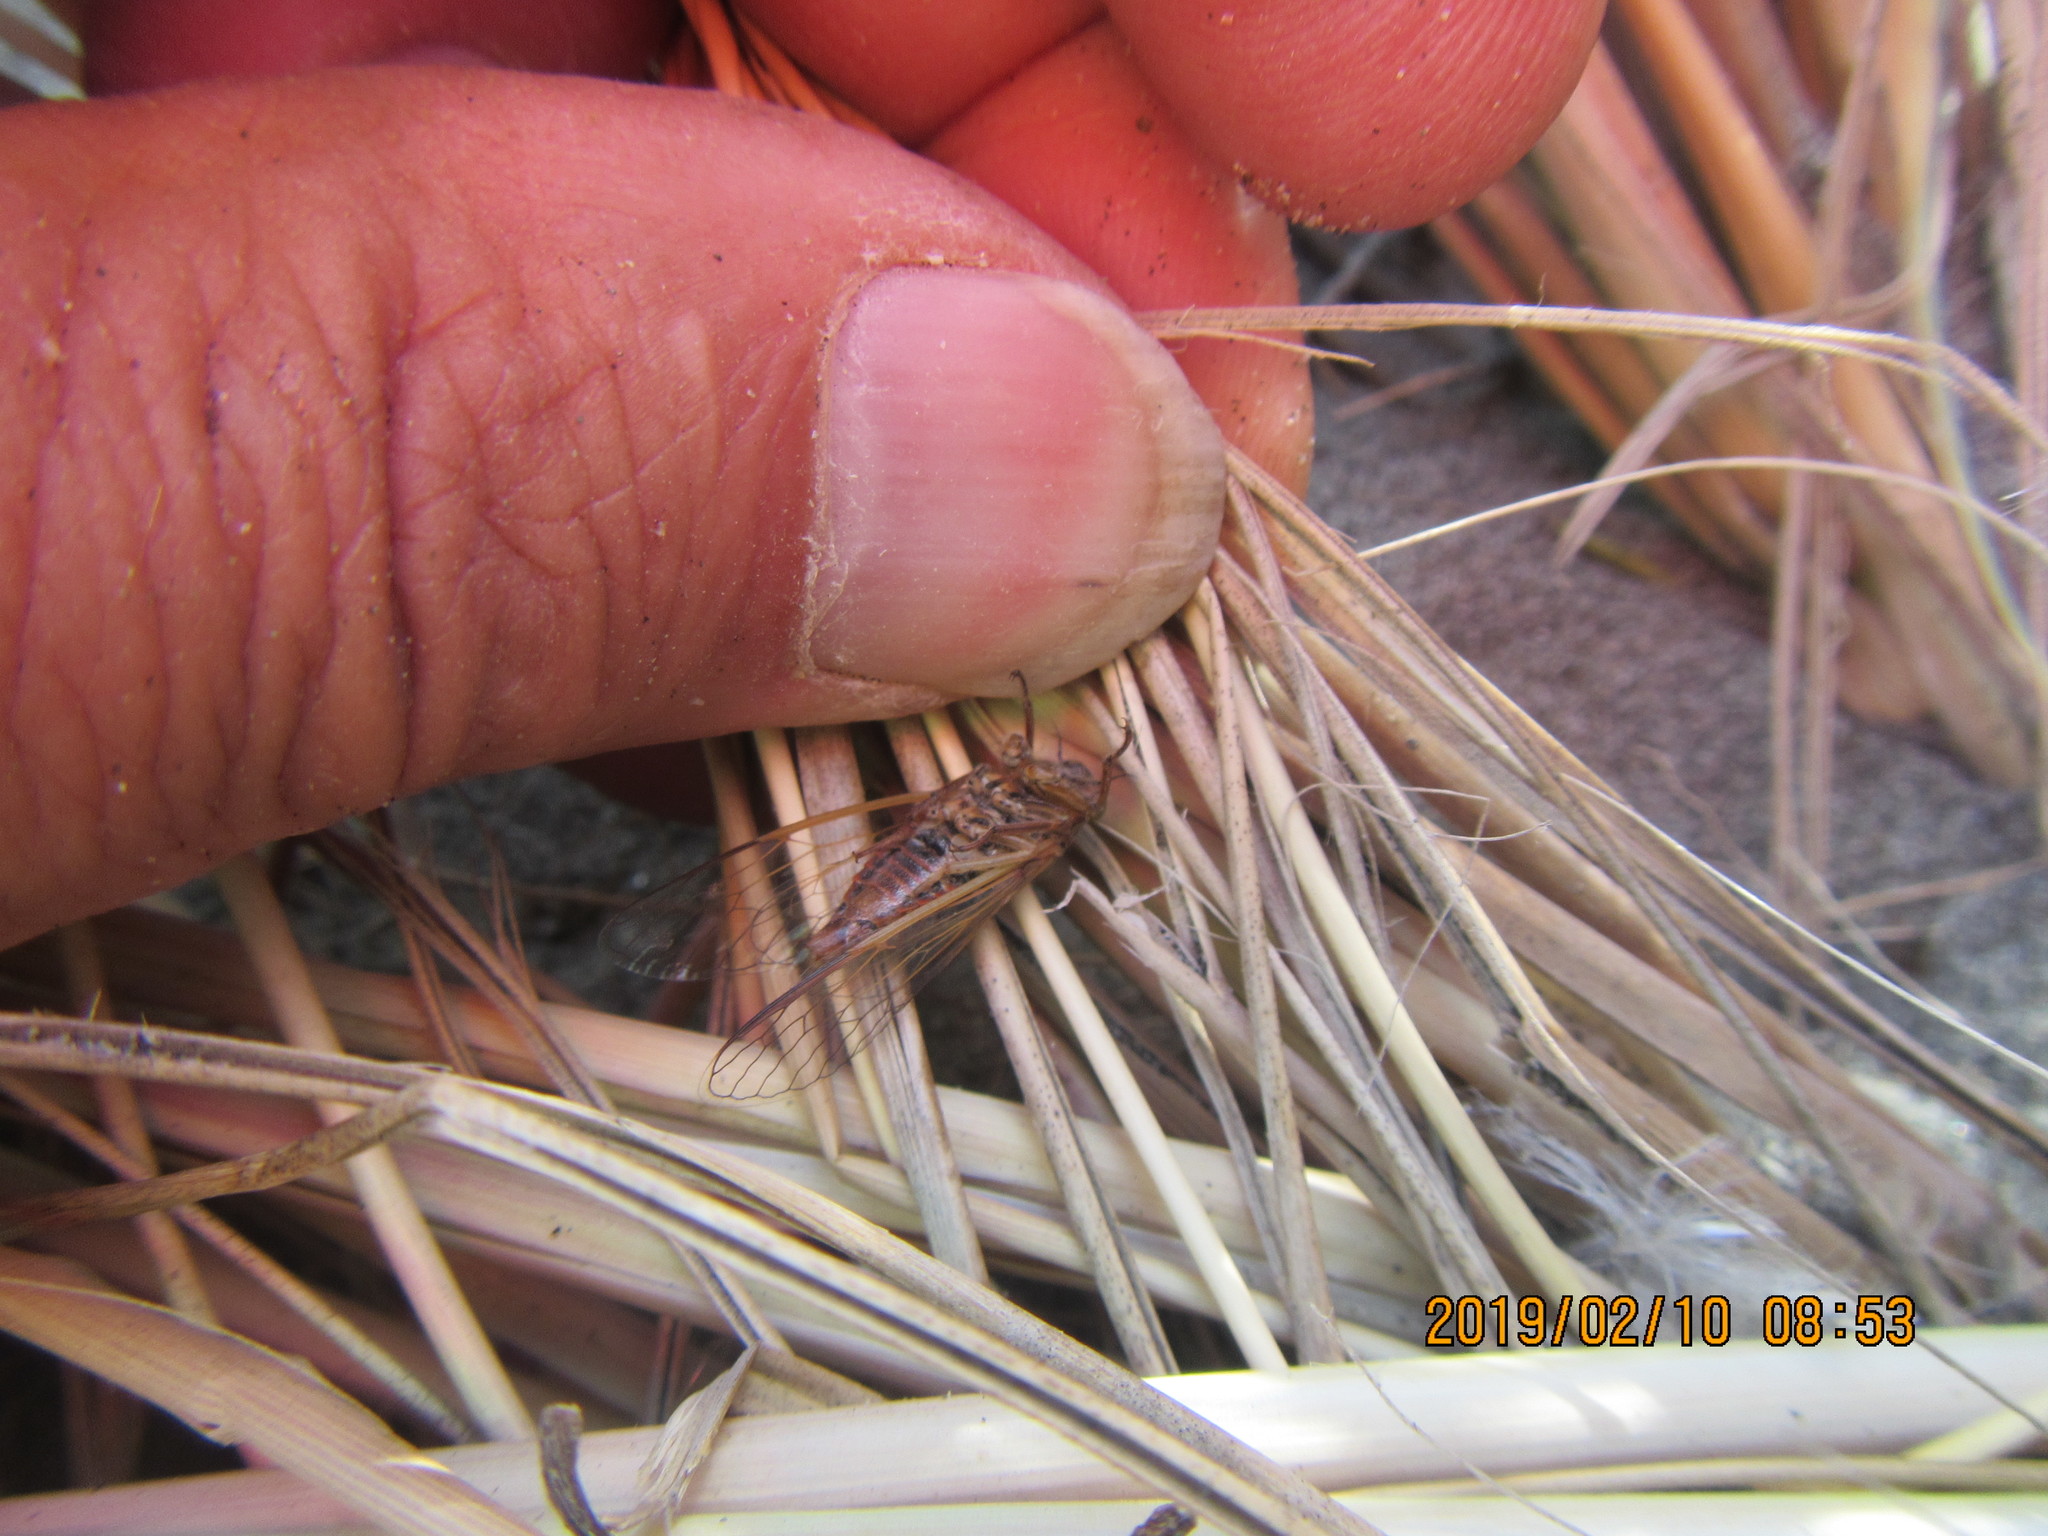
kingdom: Animalia
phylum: Arthropoda
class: Insecta
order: Hemiptera
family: Cicadidae
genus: Rhodopsalta
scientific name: Rhodopsalta leptomera
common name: Sand dune redtail cicada
